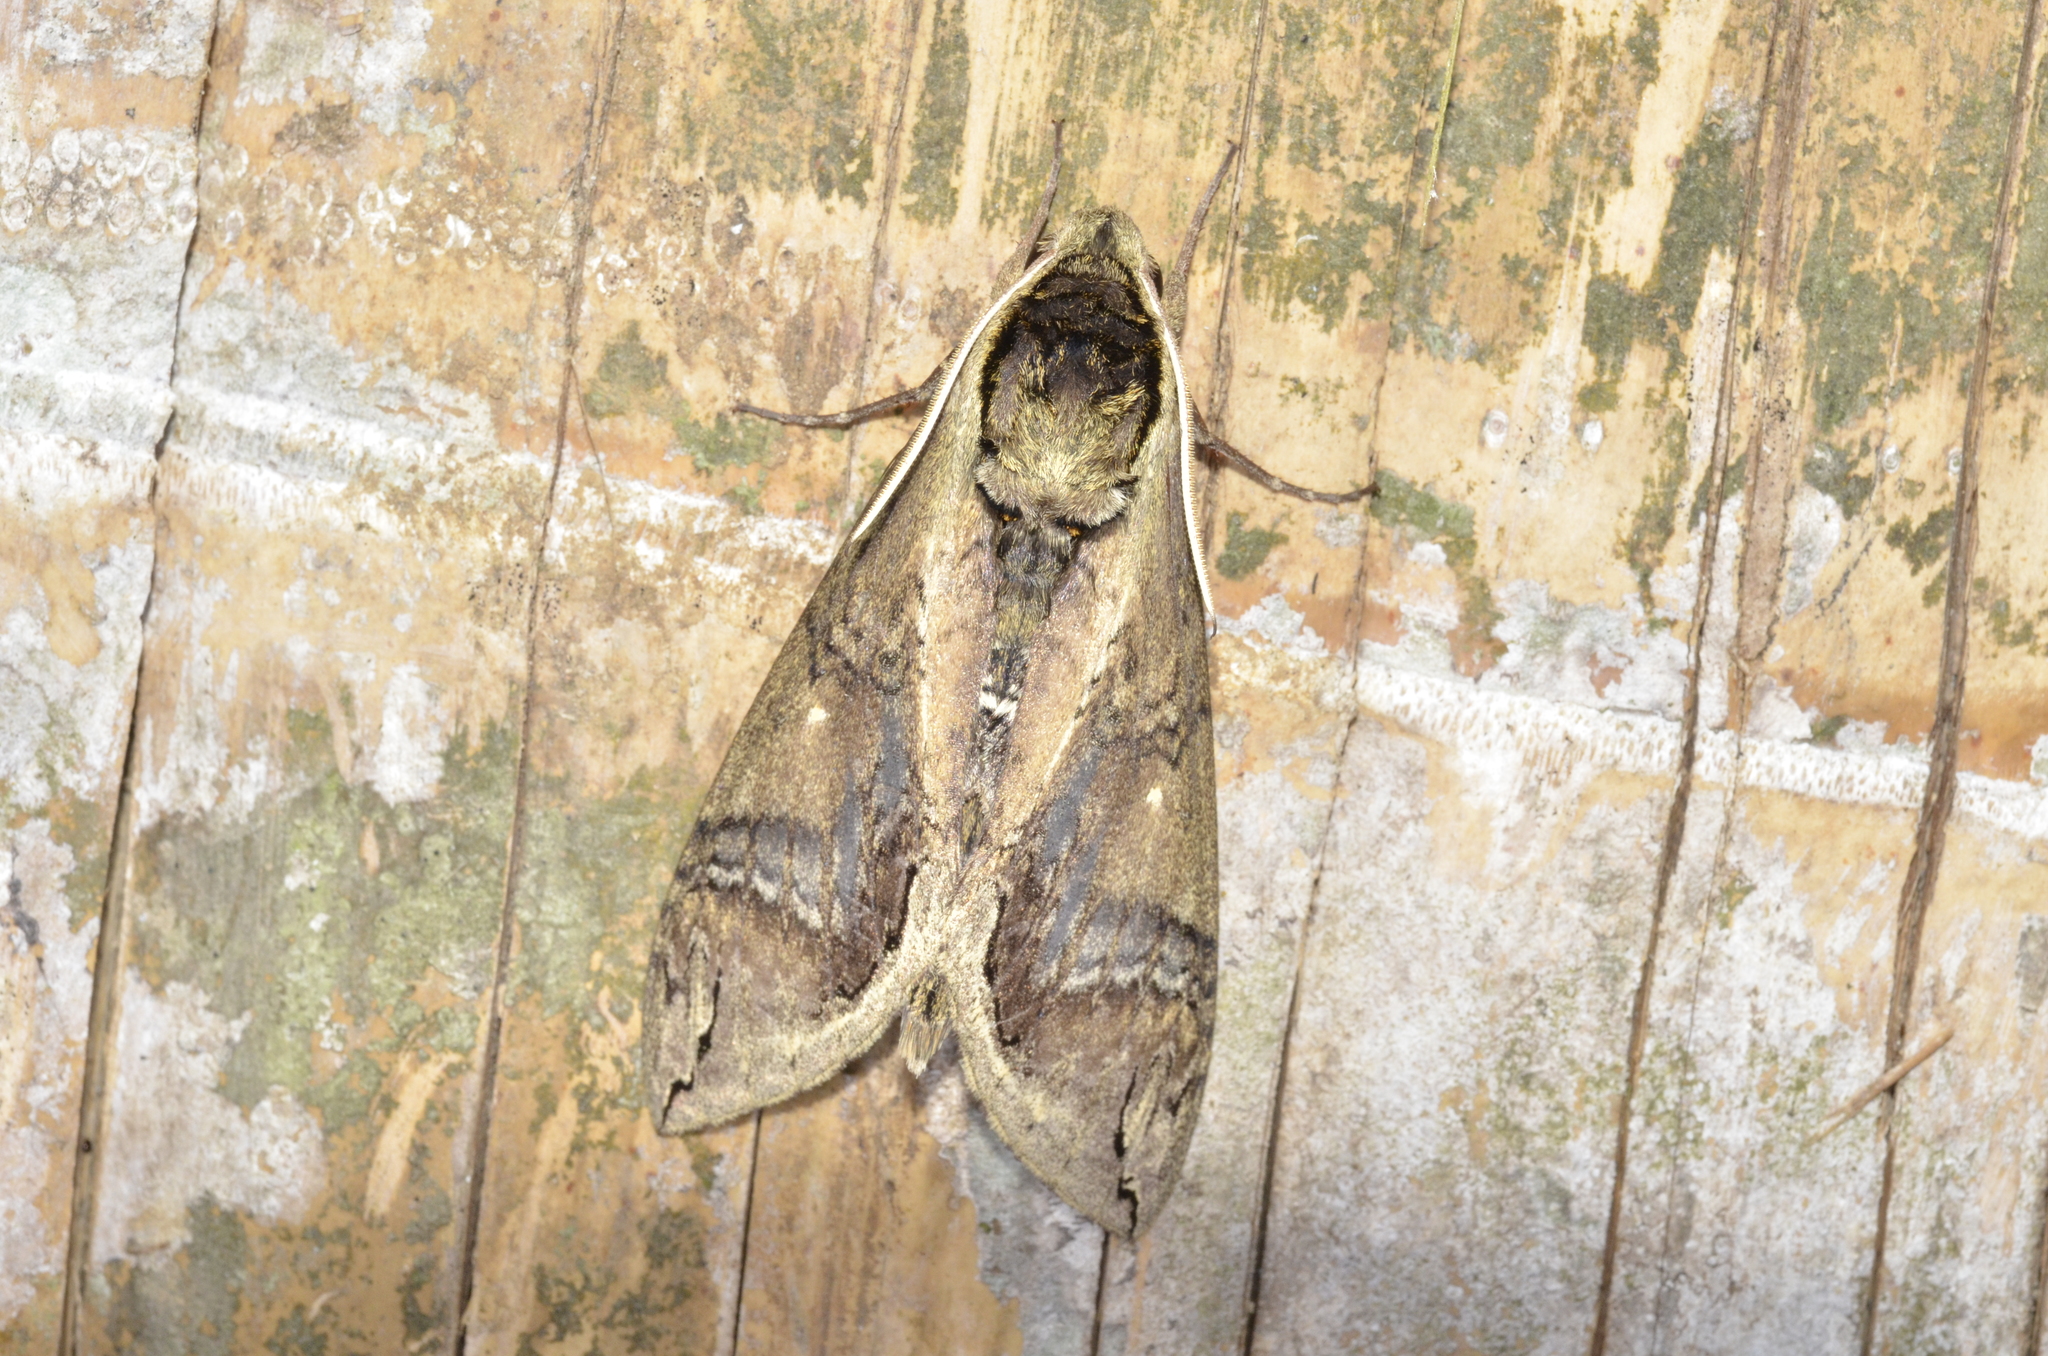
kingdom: Animalia
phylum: Arthropoda
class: Insecta
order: Lepidoptera
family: Sphingidae
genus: Manduca
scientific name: Manduca hannibal
